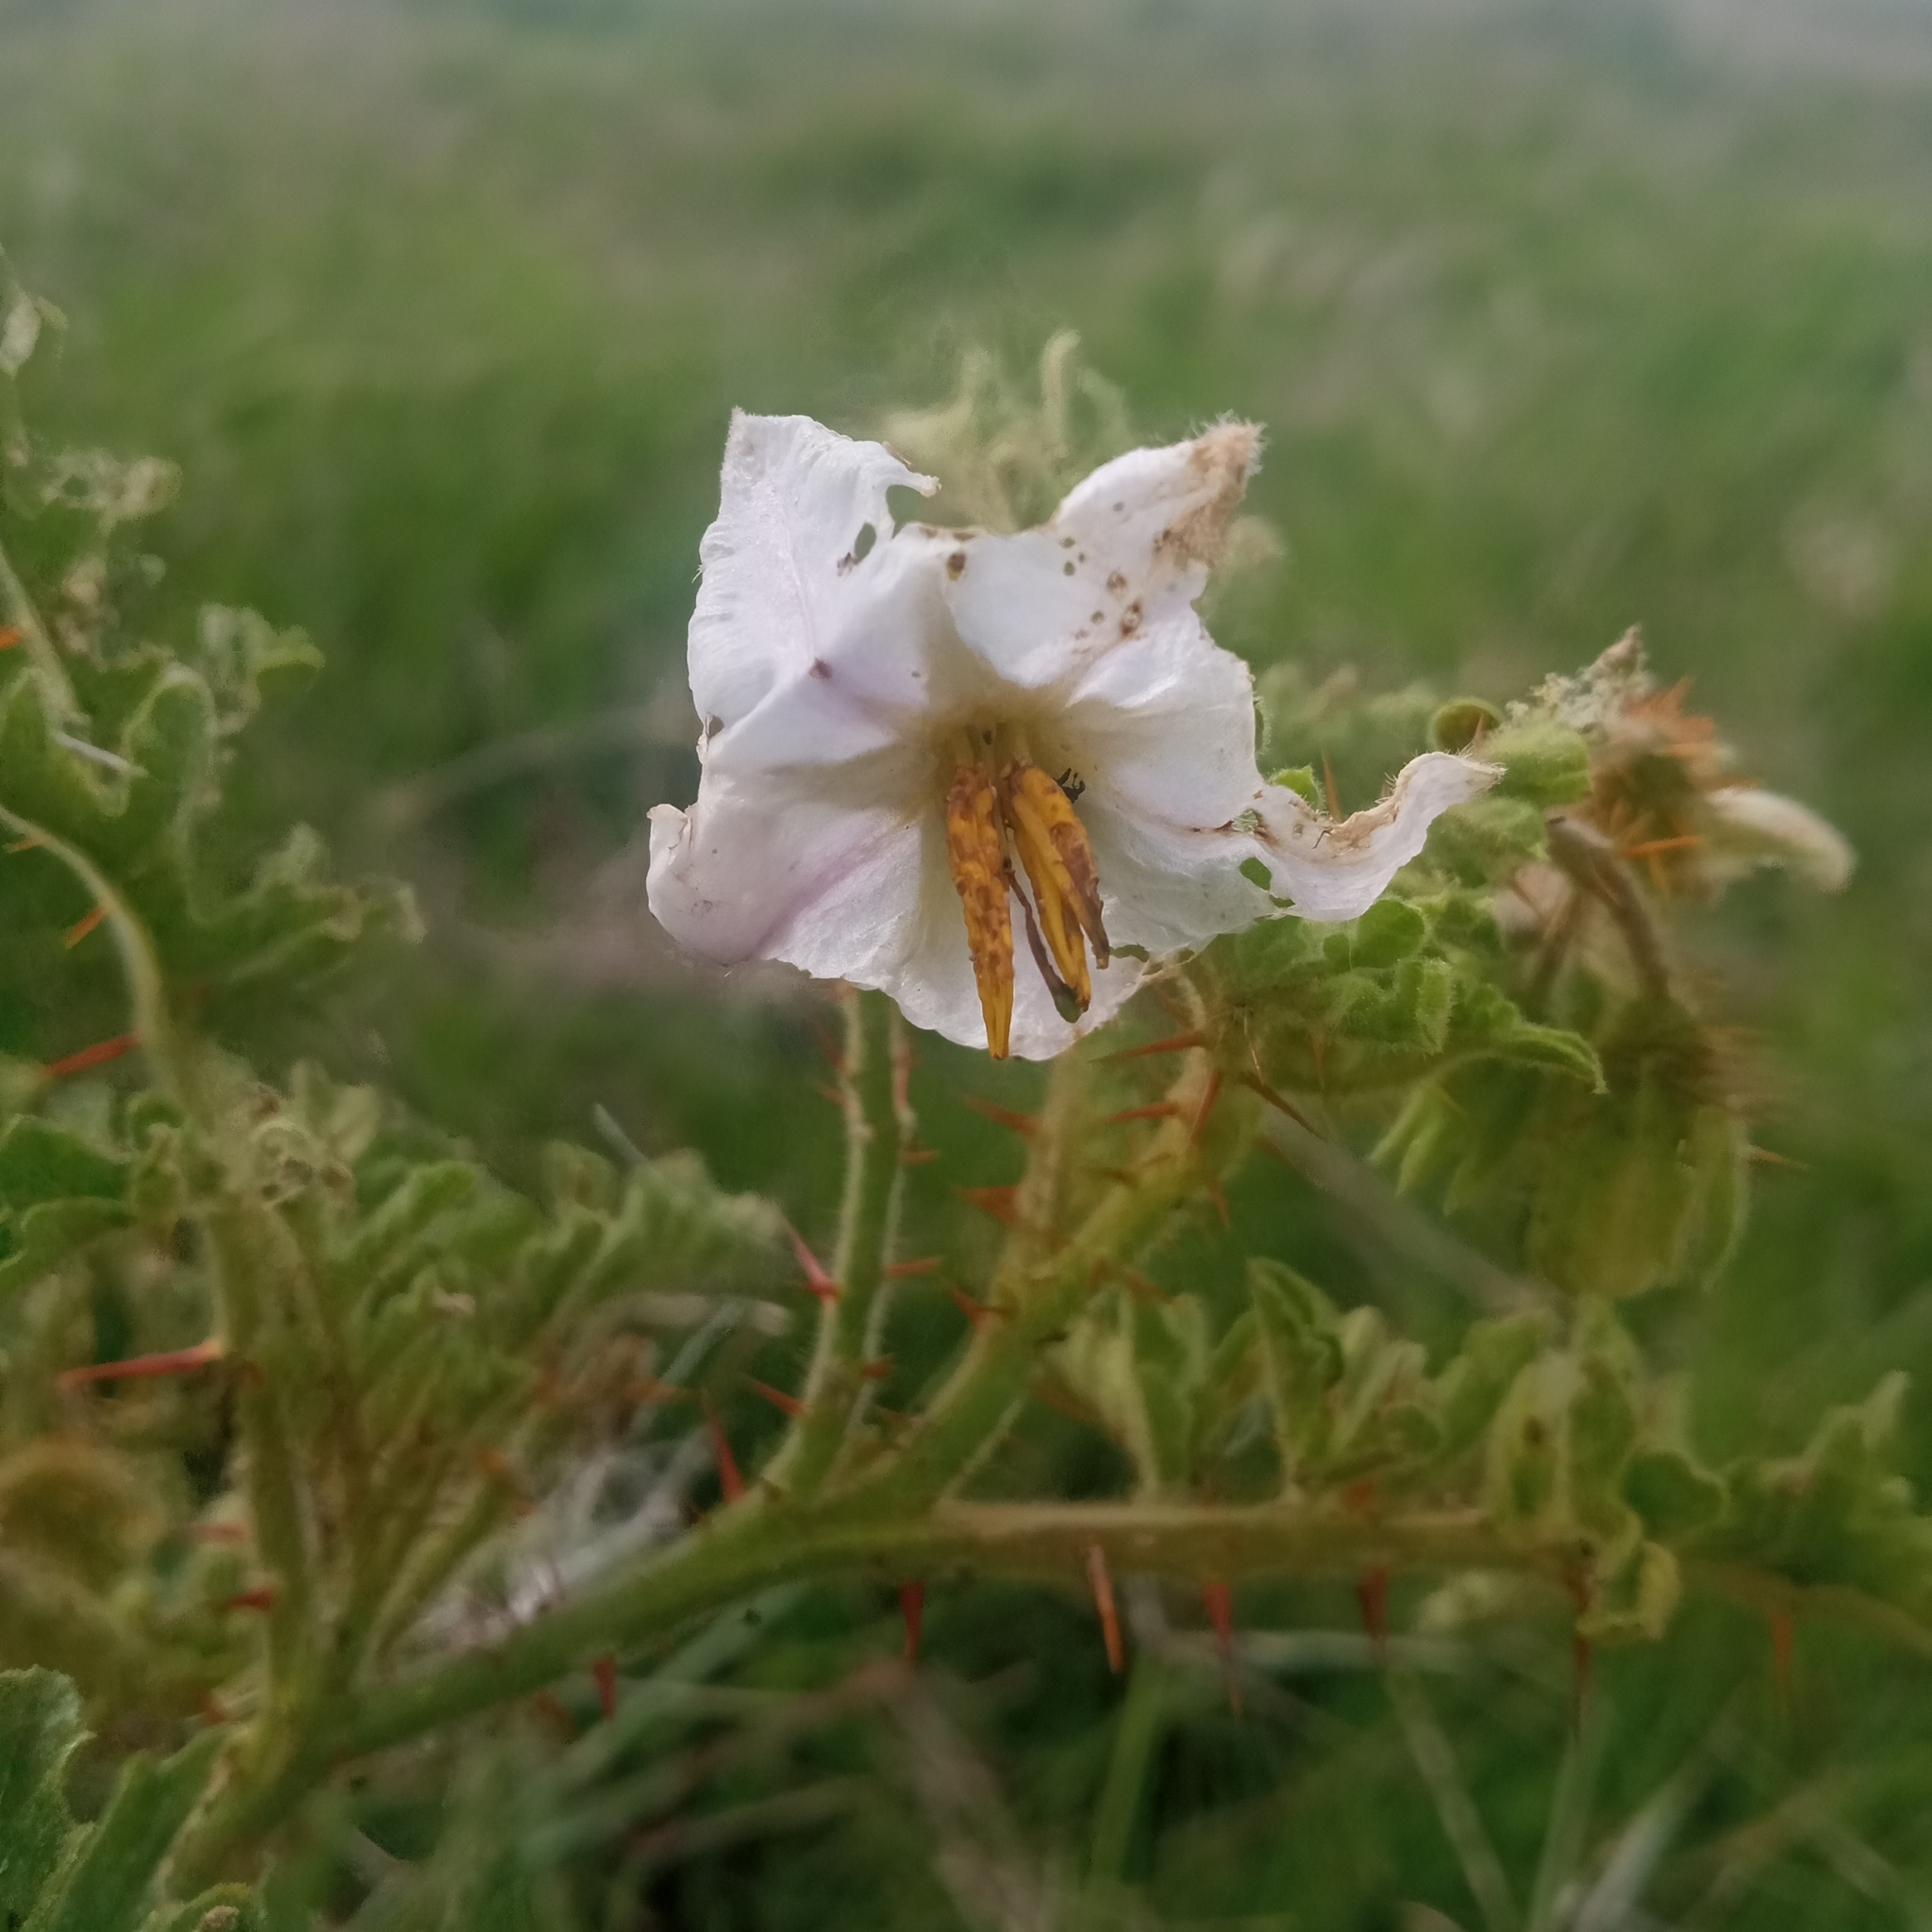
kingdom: Plantae
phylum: Tracheophyta
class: Magnoliopsida
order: Solanales
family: Solanaceae
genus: Solanum
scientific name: Solanum sisymbriifolium
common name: Red buffalo-bur
